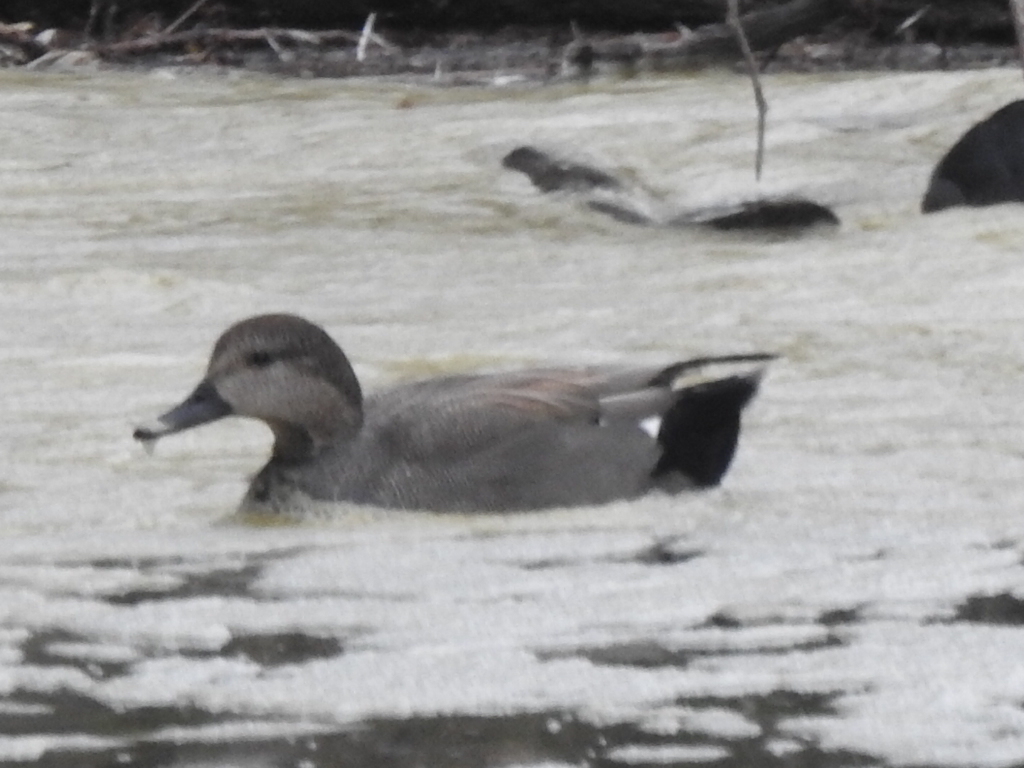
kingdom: Animalia
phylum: Chordata
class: Aves
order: Anseriformes
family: Anatidae
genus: Mareca
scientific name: Mareca strepera
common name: Gadwall
